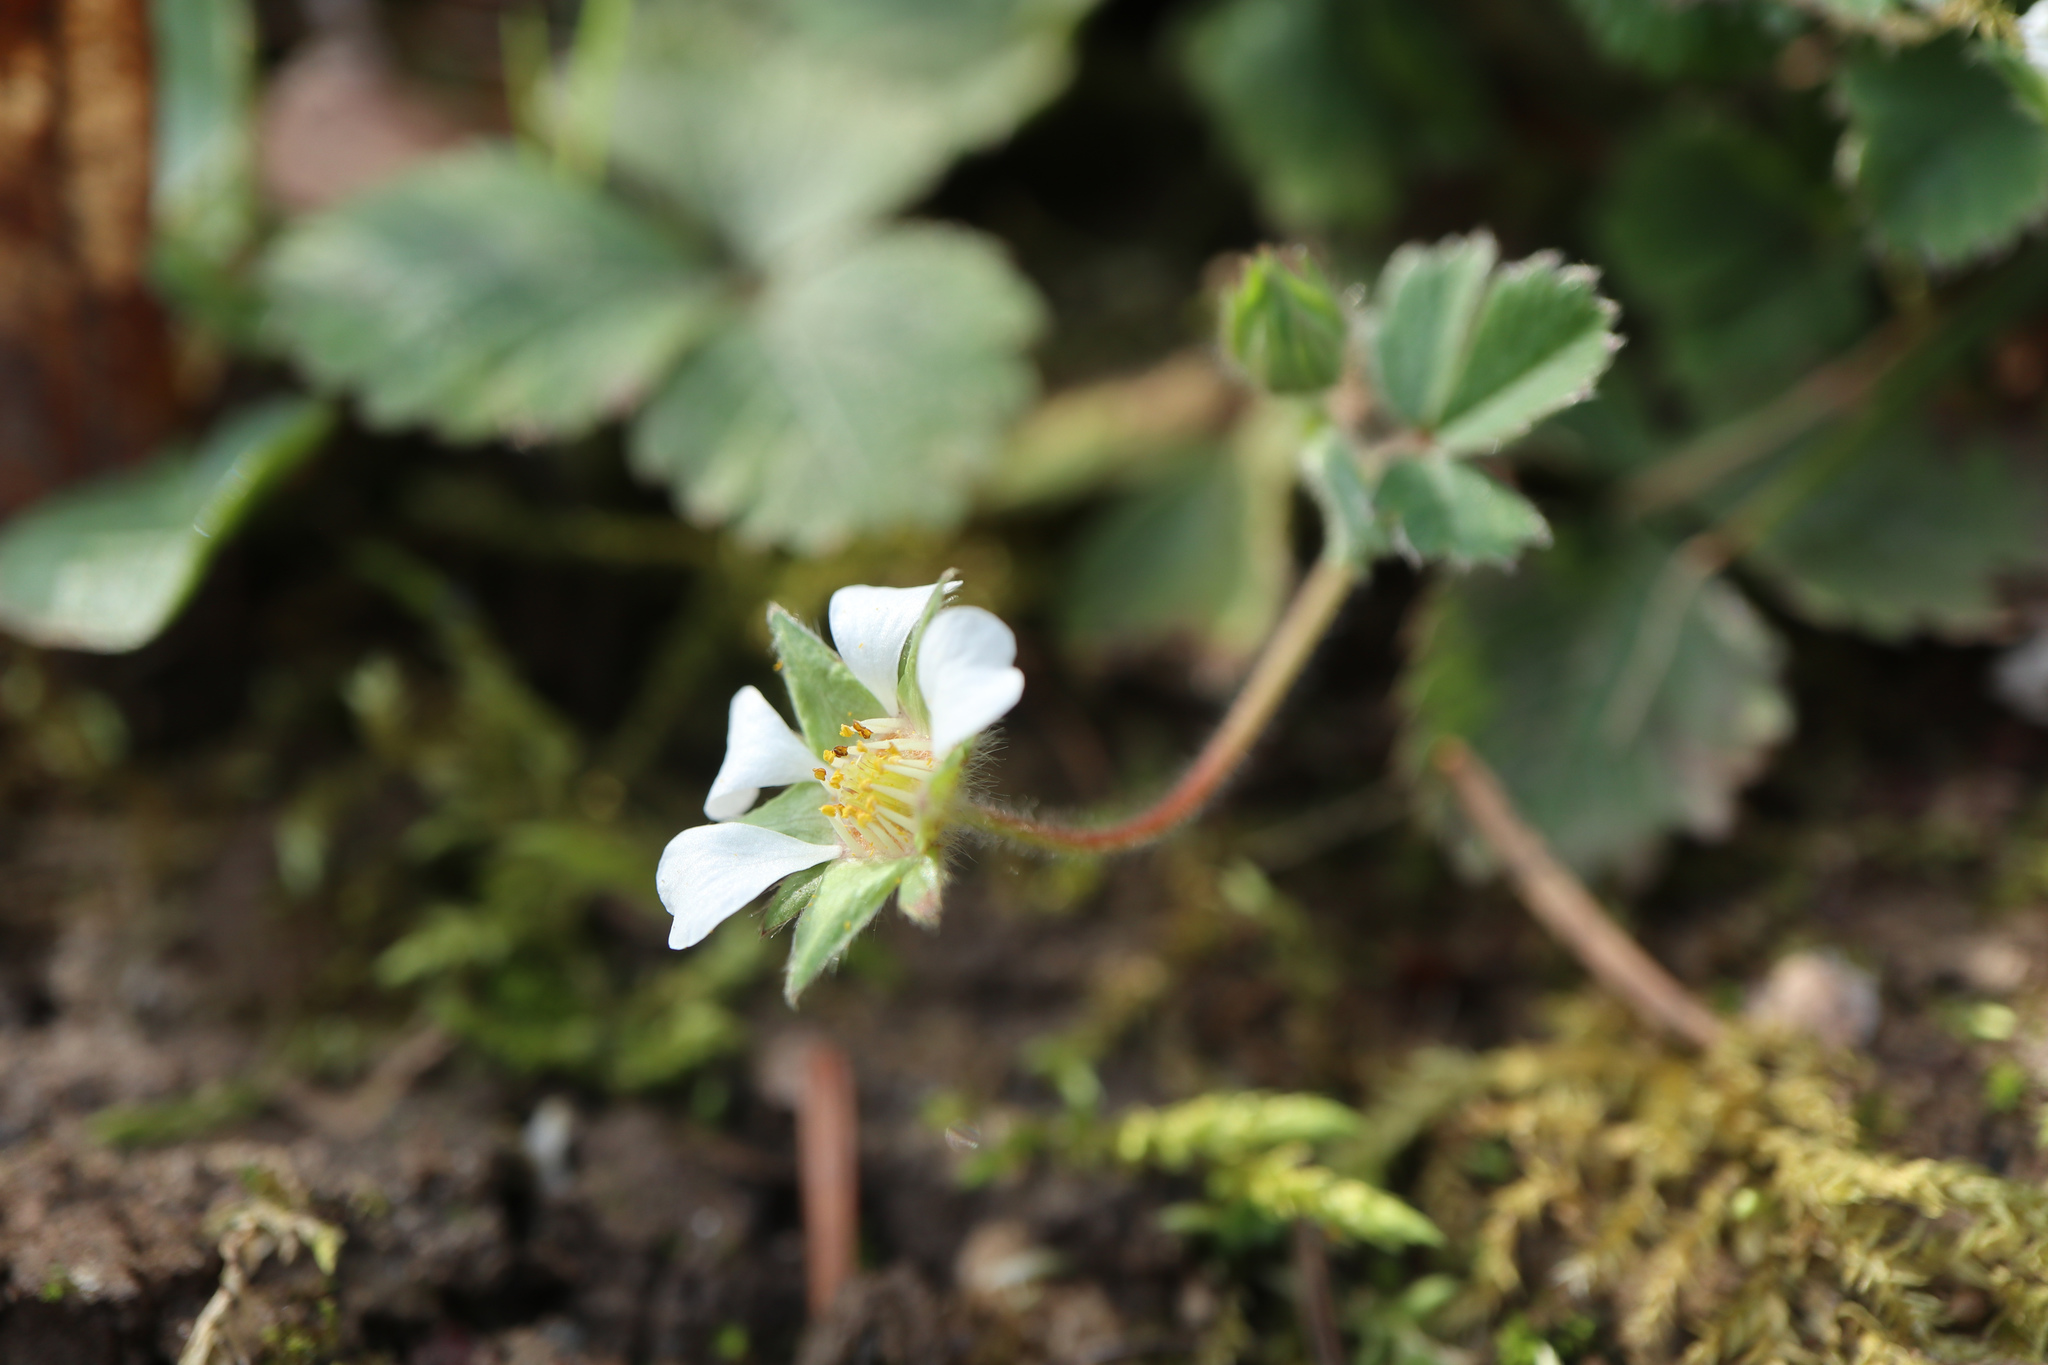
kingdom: Plantae
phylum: Tracheophyta
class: Magnoliopsida
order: Rosales
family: Rosaceae
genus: Potentilla
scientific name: Potentilla sterilis
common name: Barren strawberry
